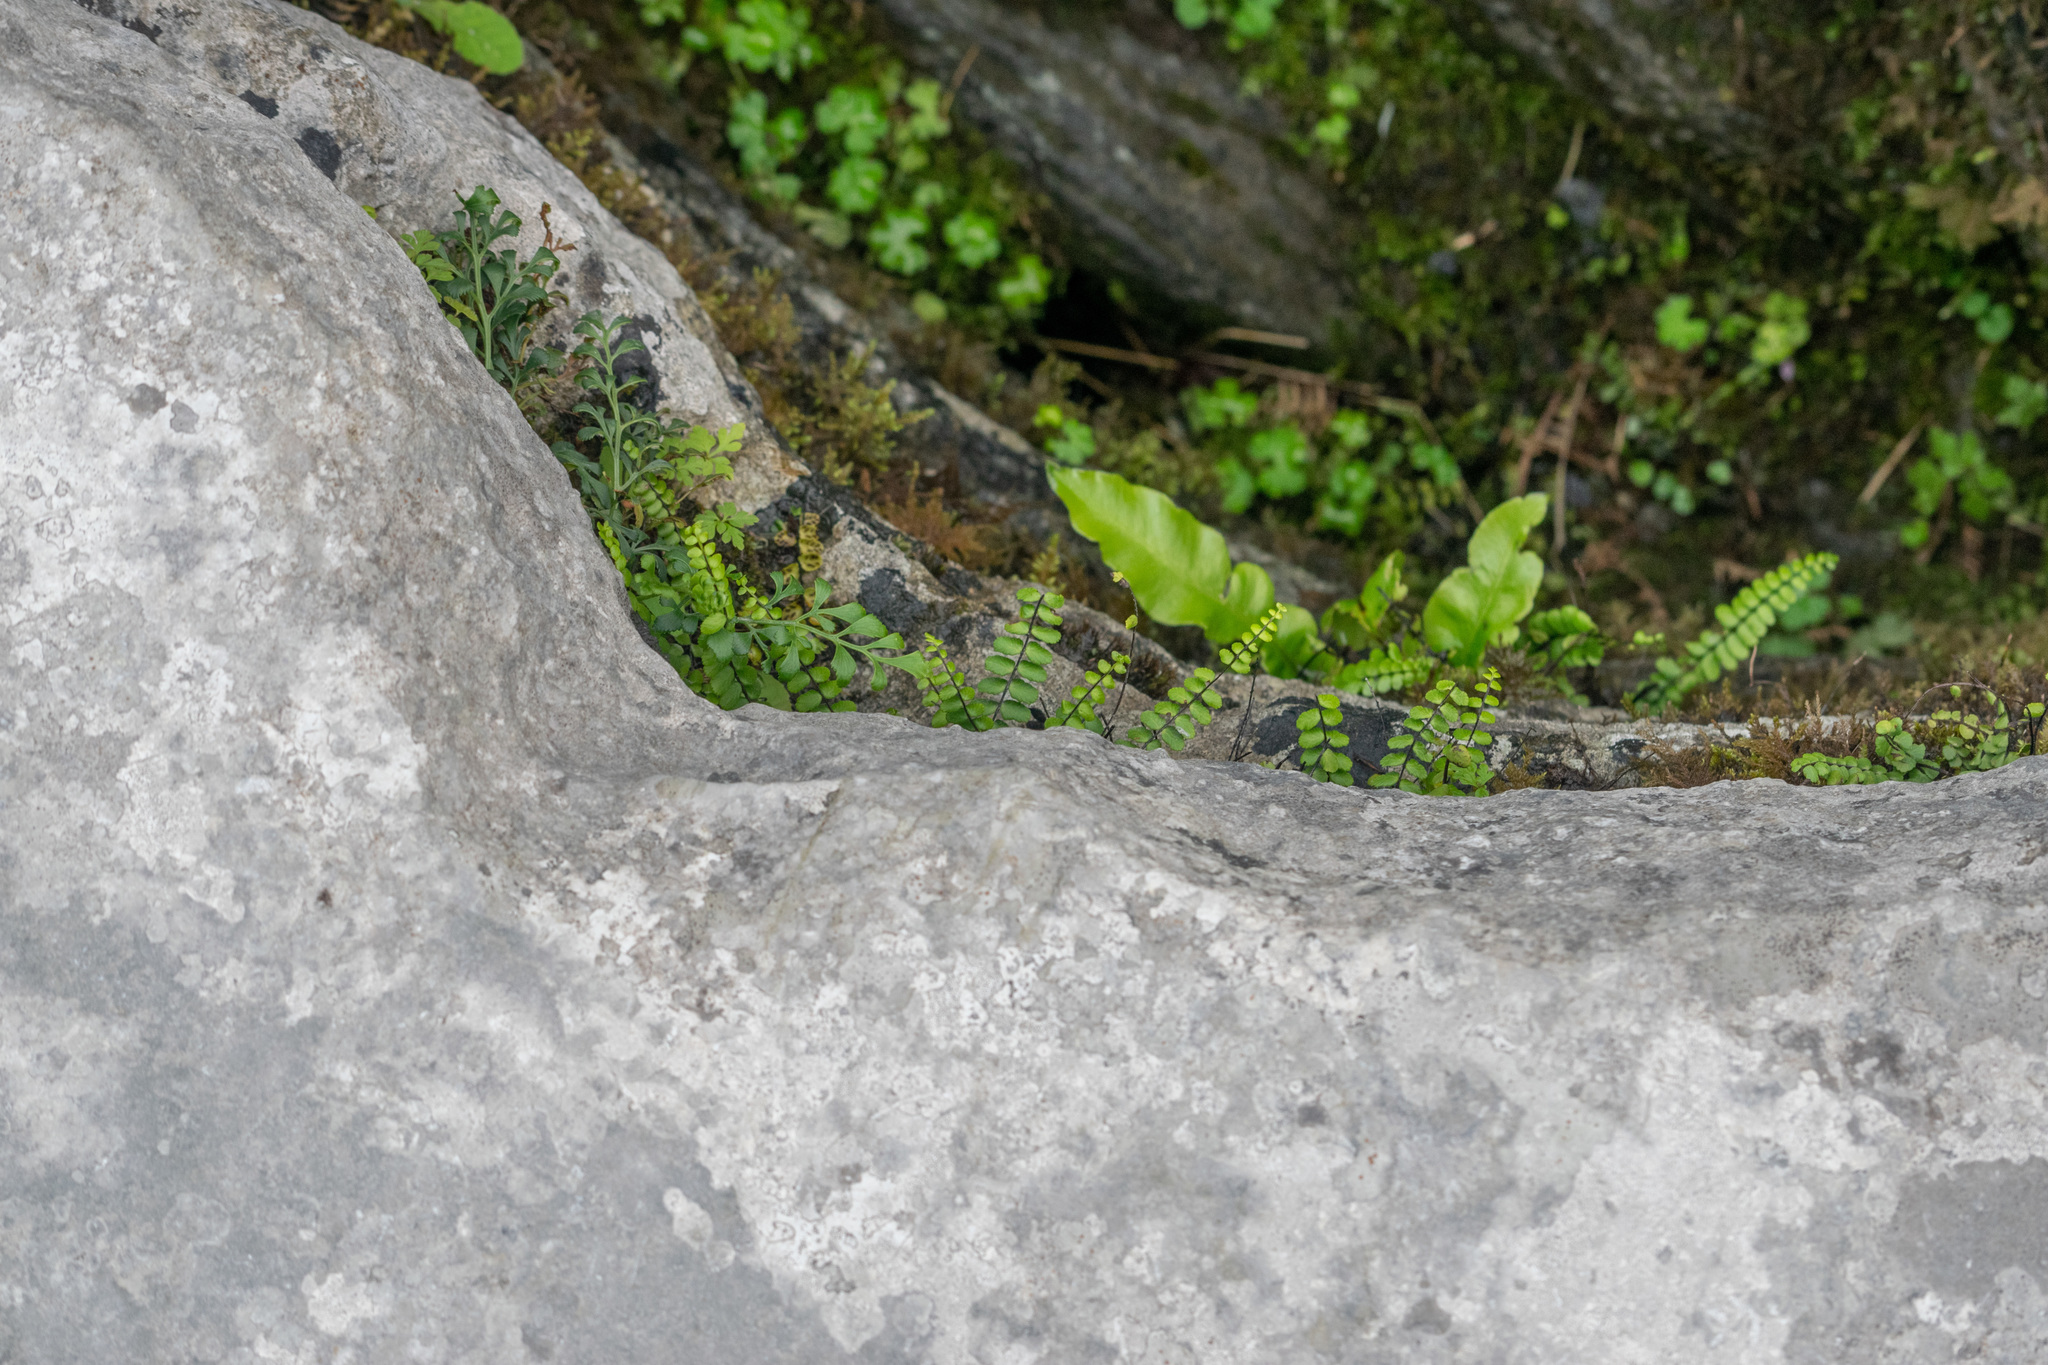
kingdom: Plantae
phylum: Tracheophyta
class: Polypodiopsida
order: Polypodiales
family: Aspleniaceae
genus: Asplenium
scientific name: Asplenium trichomanes
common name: Maidenhair spleenwort
